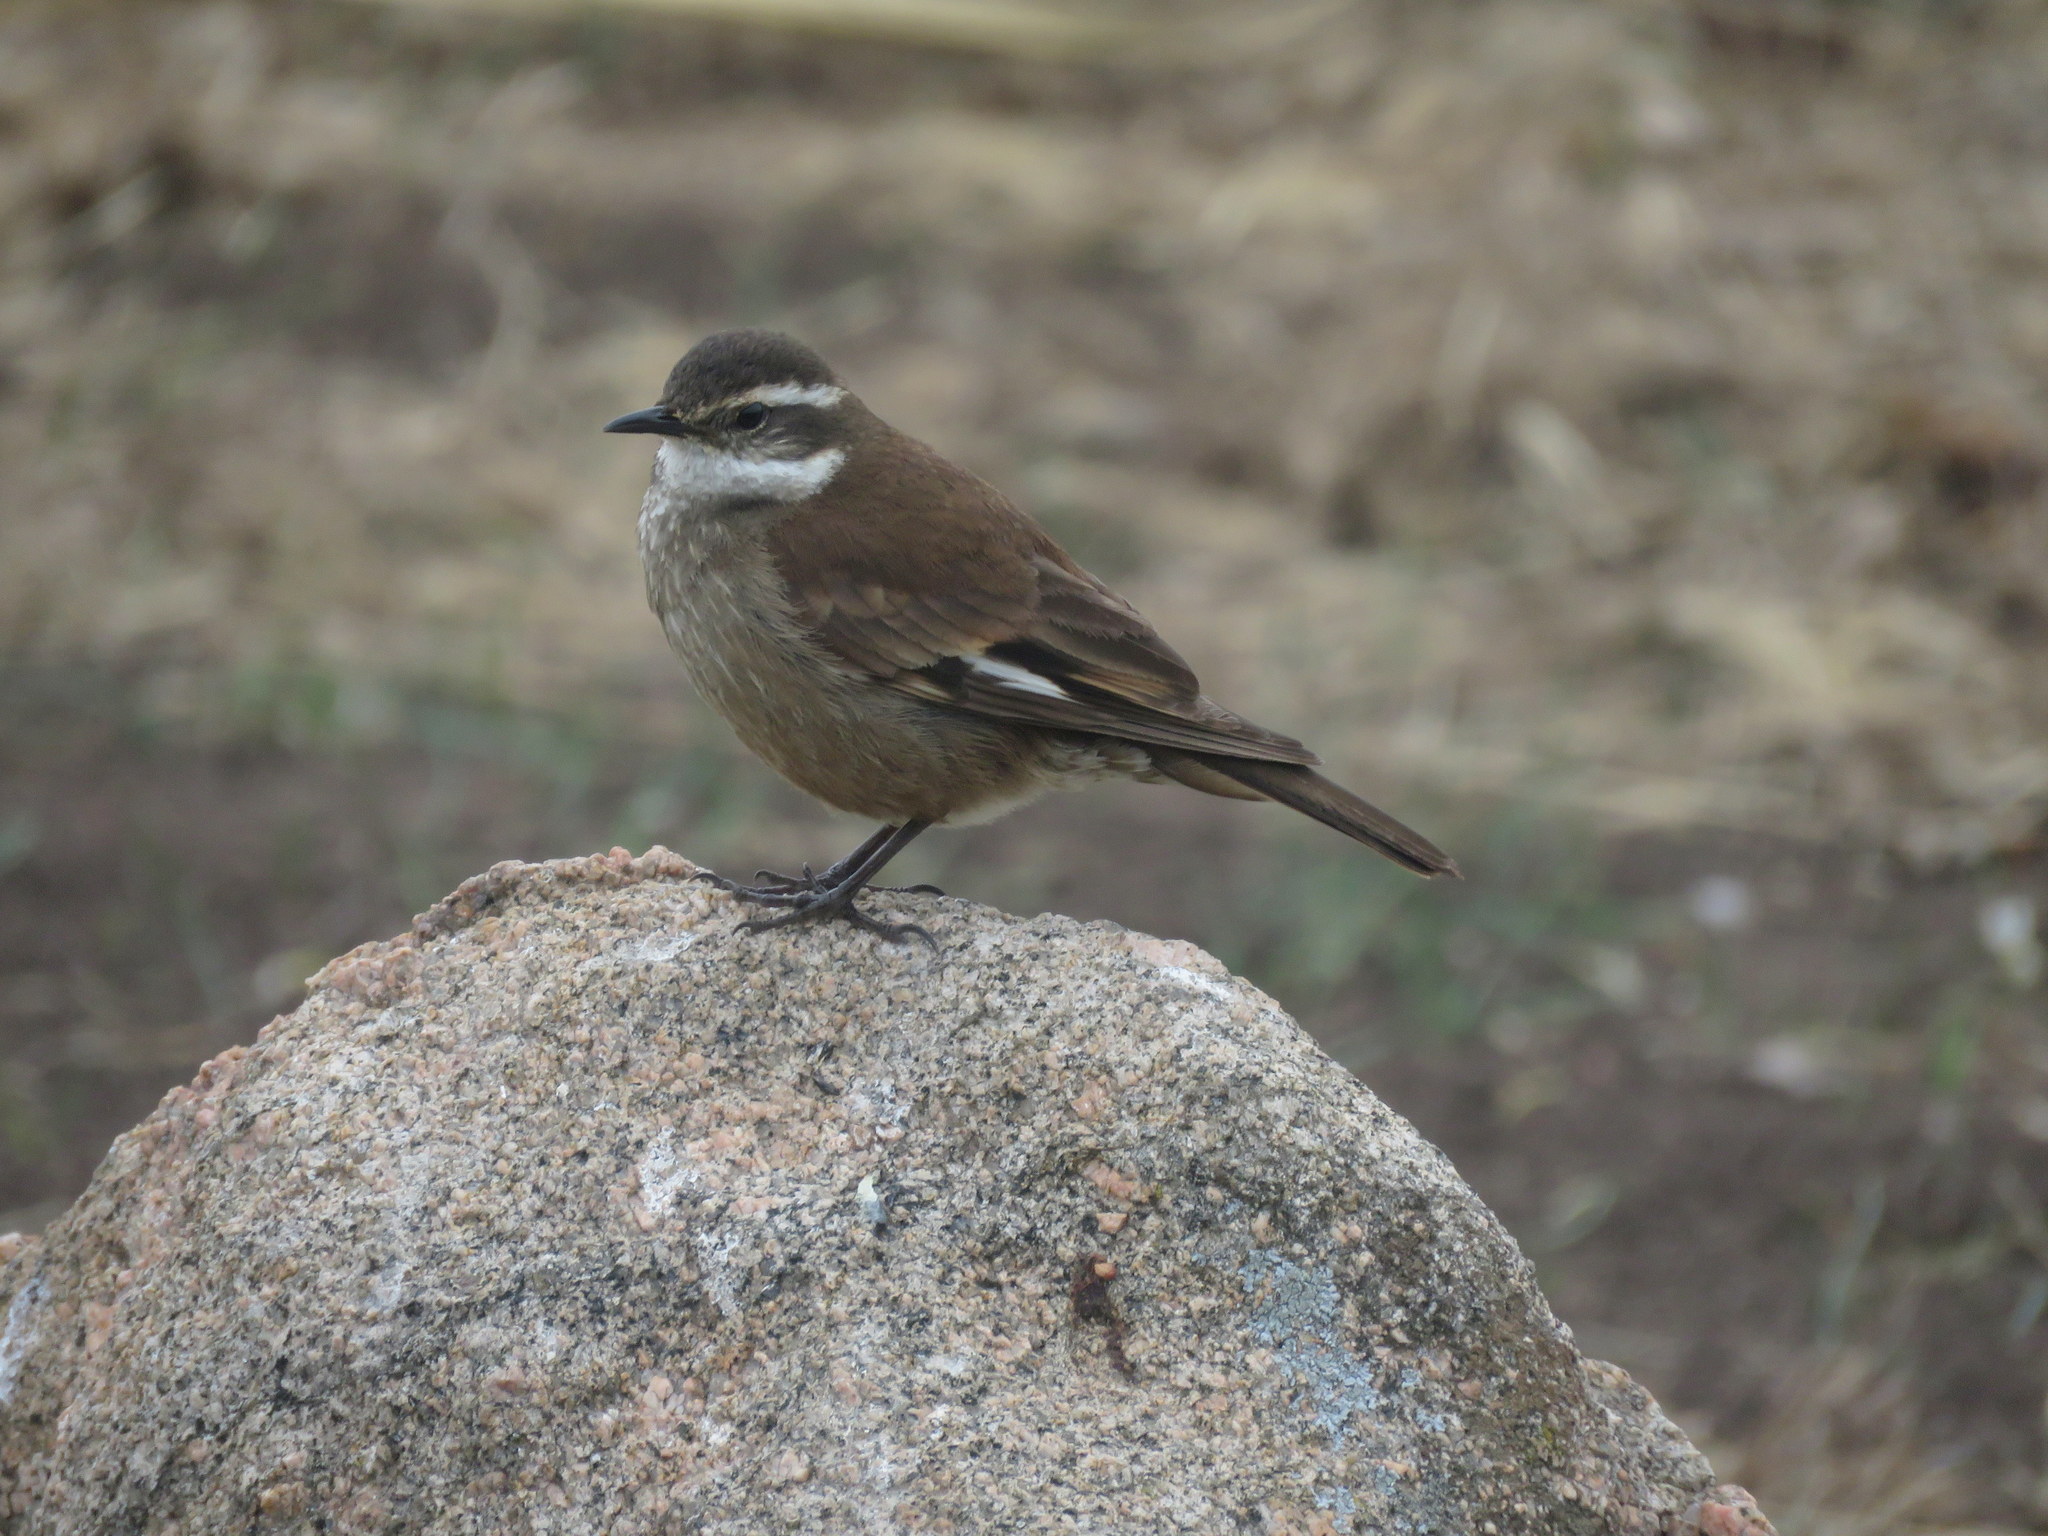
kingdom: Animalia
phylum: Chordata
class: Aves
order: Passeriformes
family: Furnariidae
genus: Cinclodes
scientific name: Cinclodes olrogi
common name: Olrog's cinclodes
